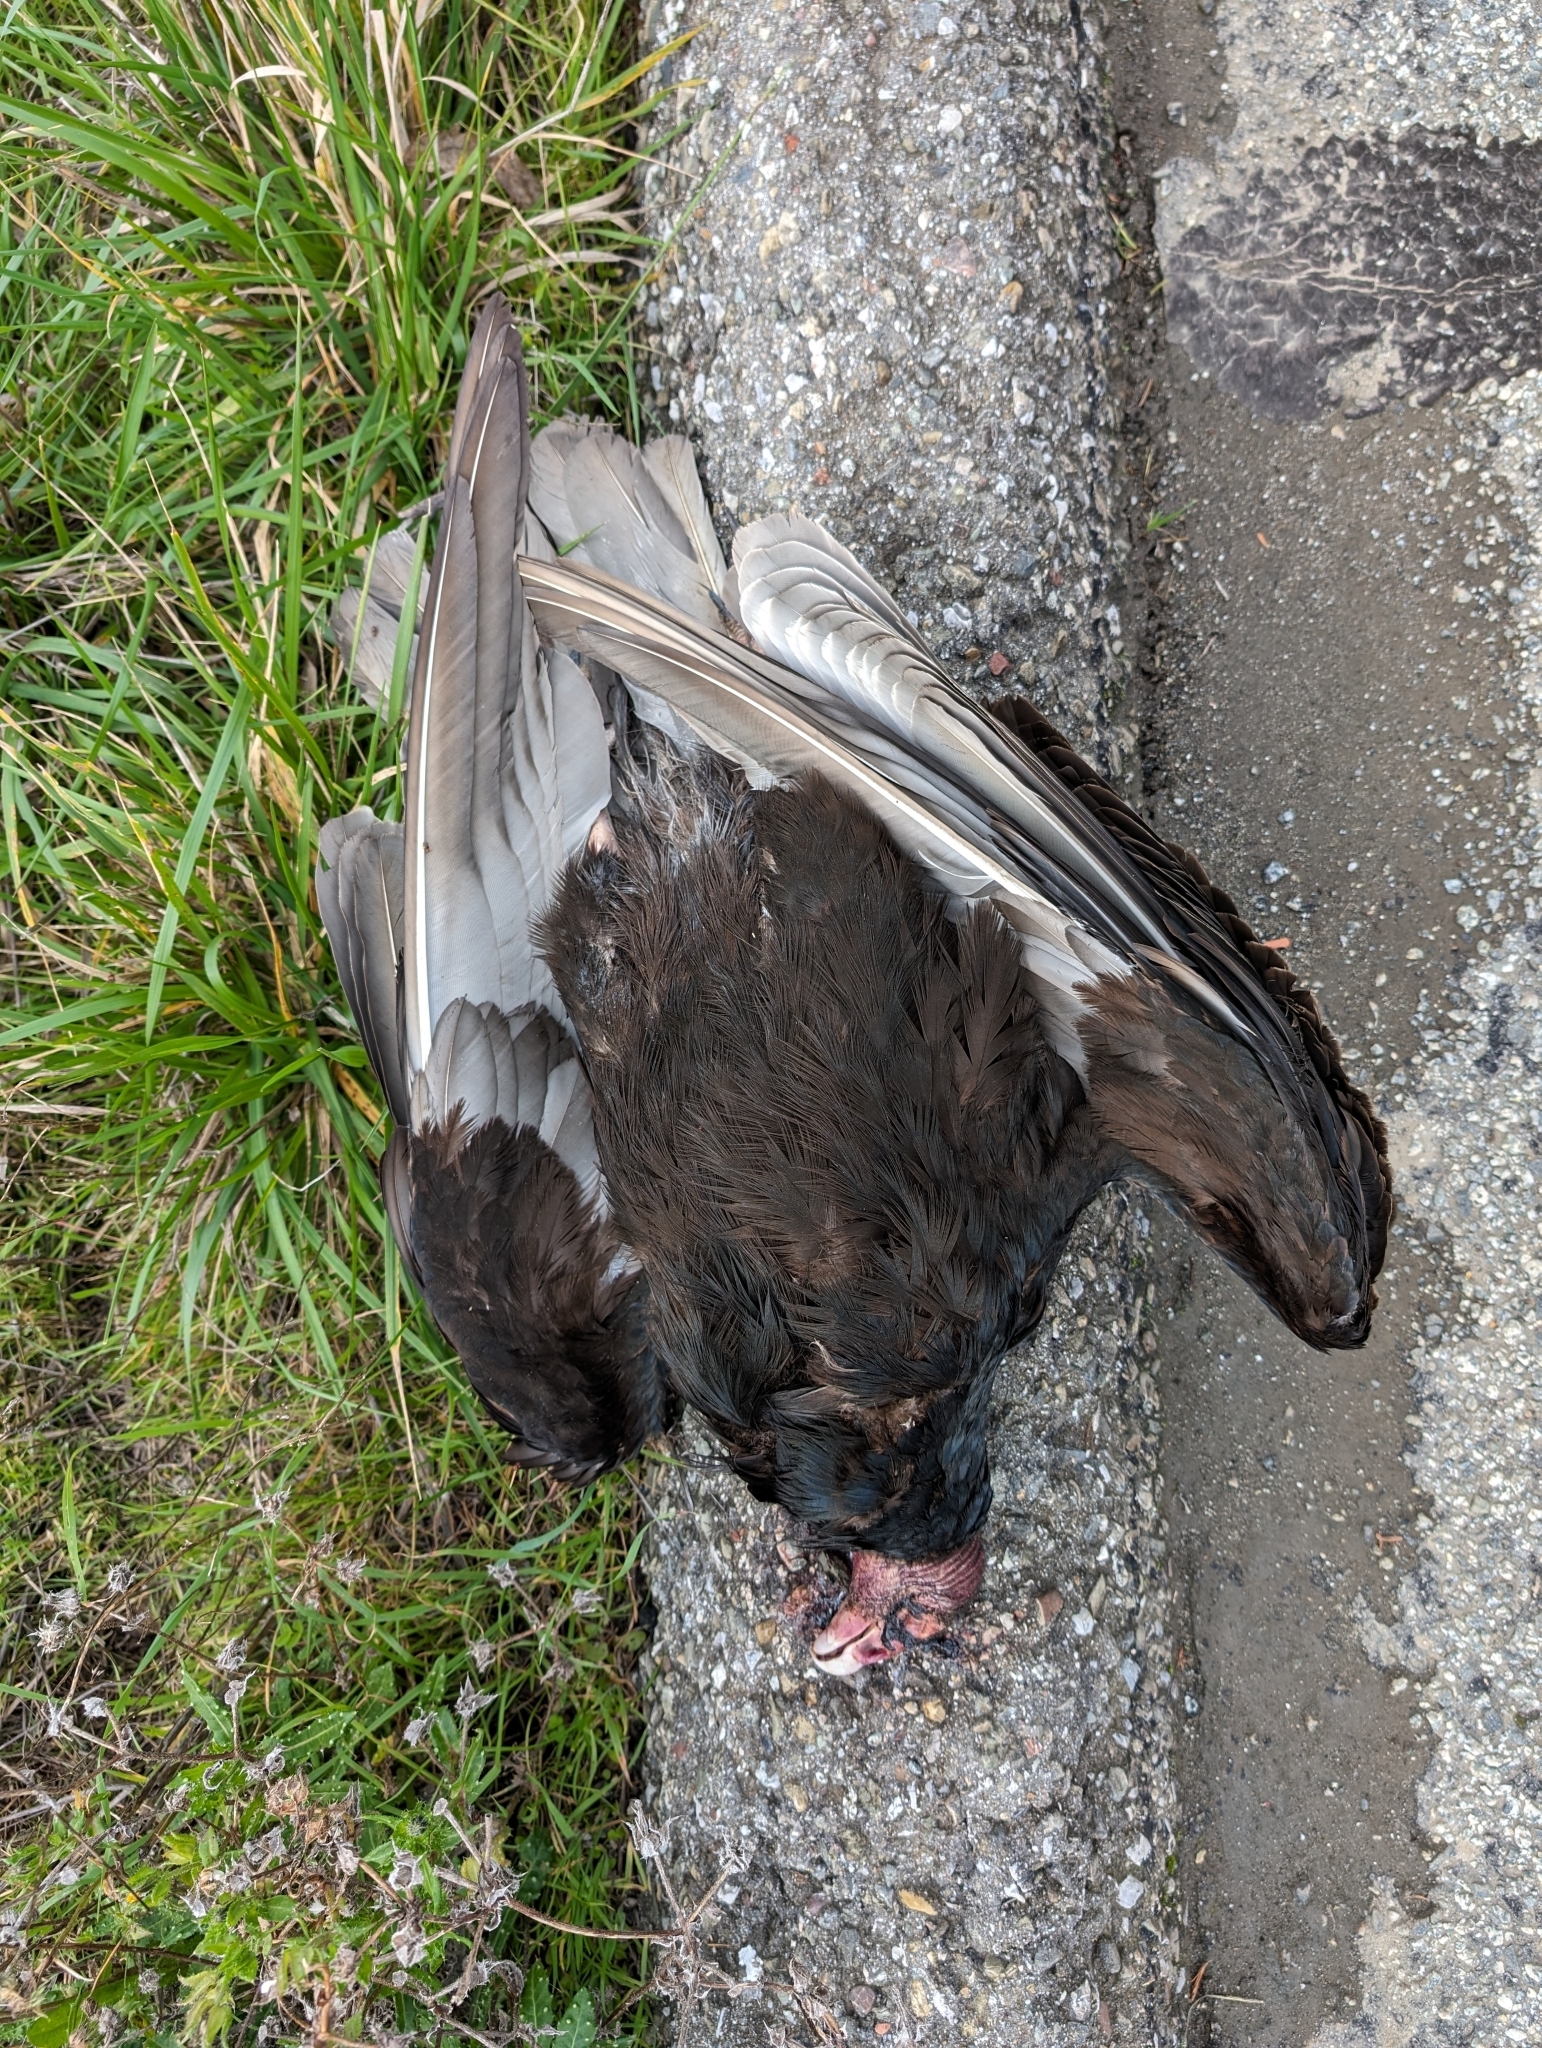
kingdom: Animalia
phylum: Chordata
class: Aves
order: Accipitriformes
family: Cathartidae
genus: Cathartes
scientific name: Cathartes aura
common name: Turkey vulture
